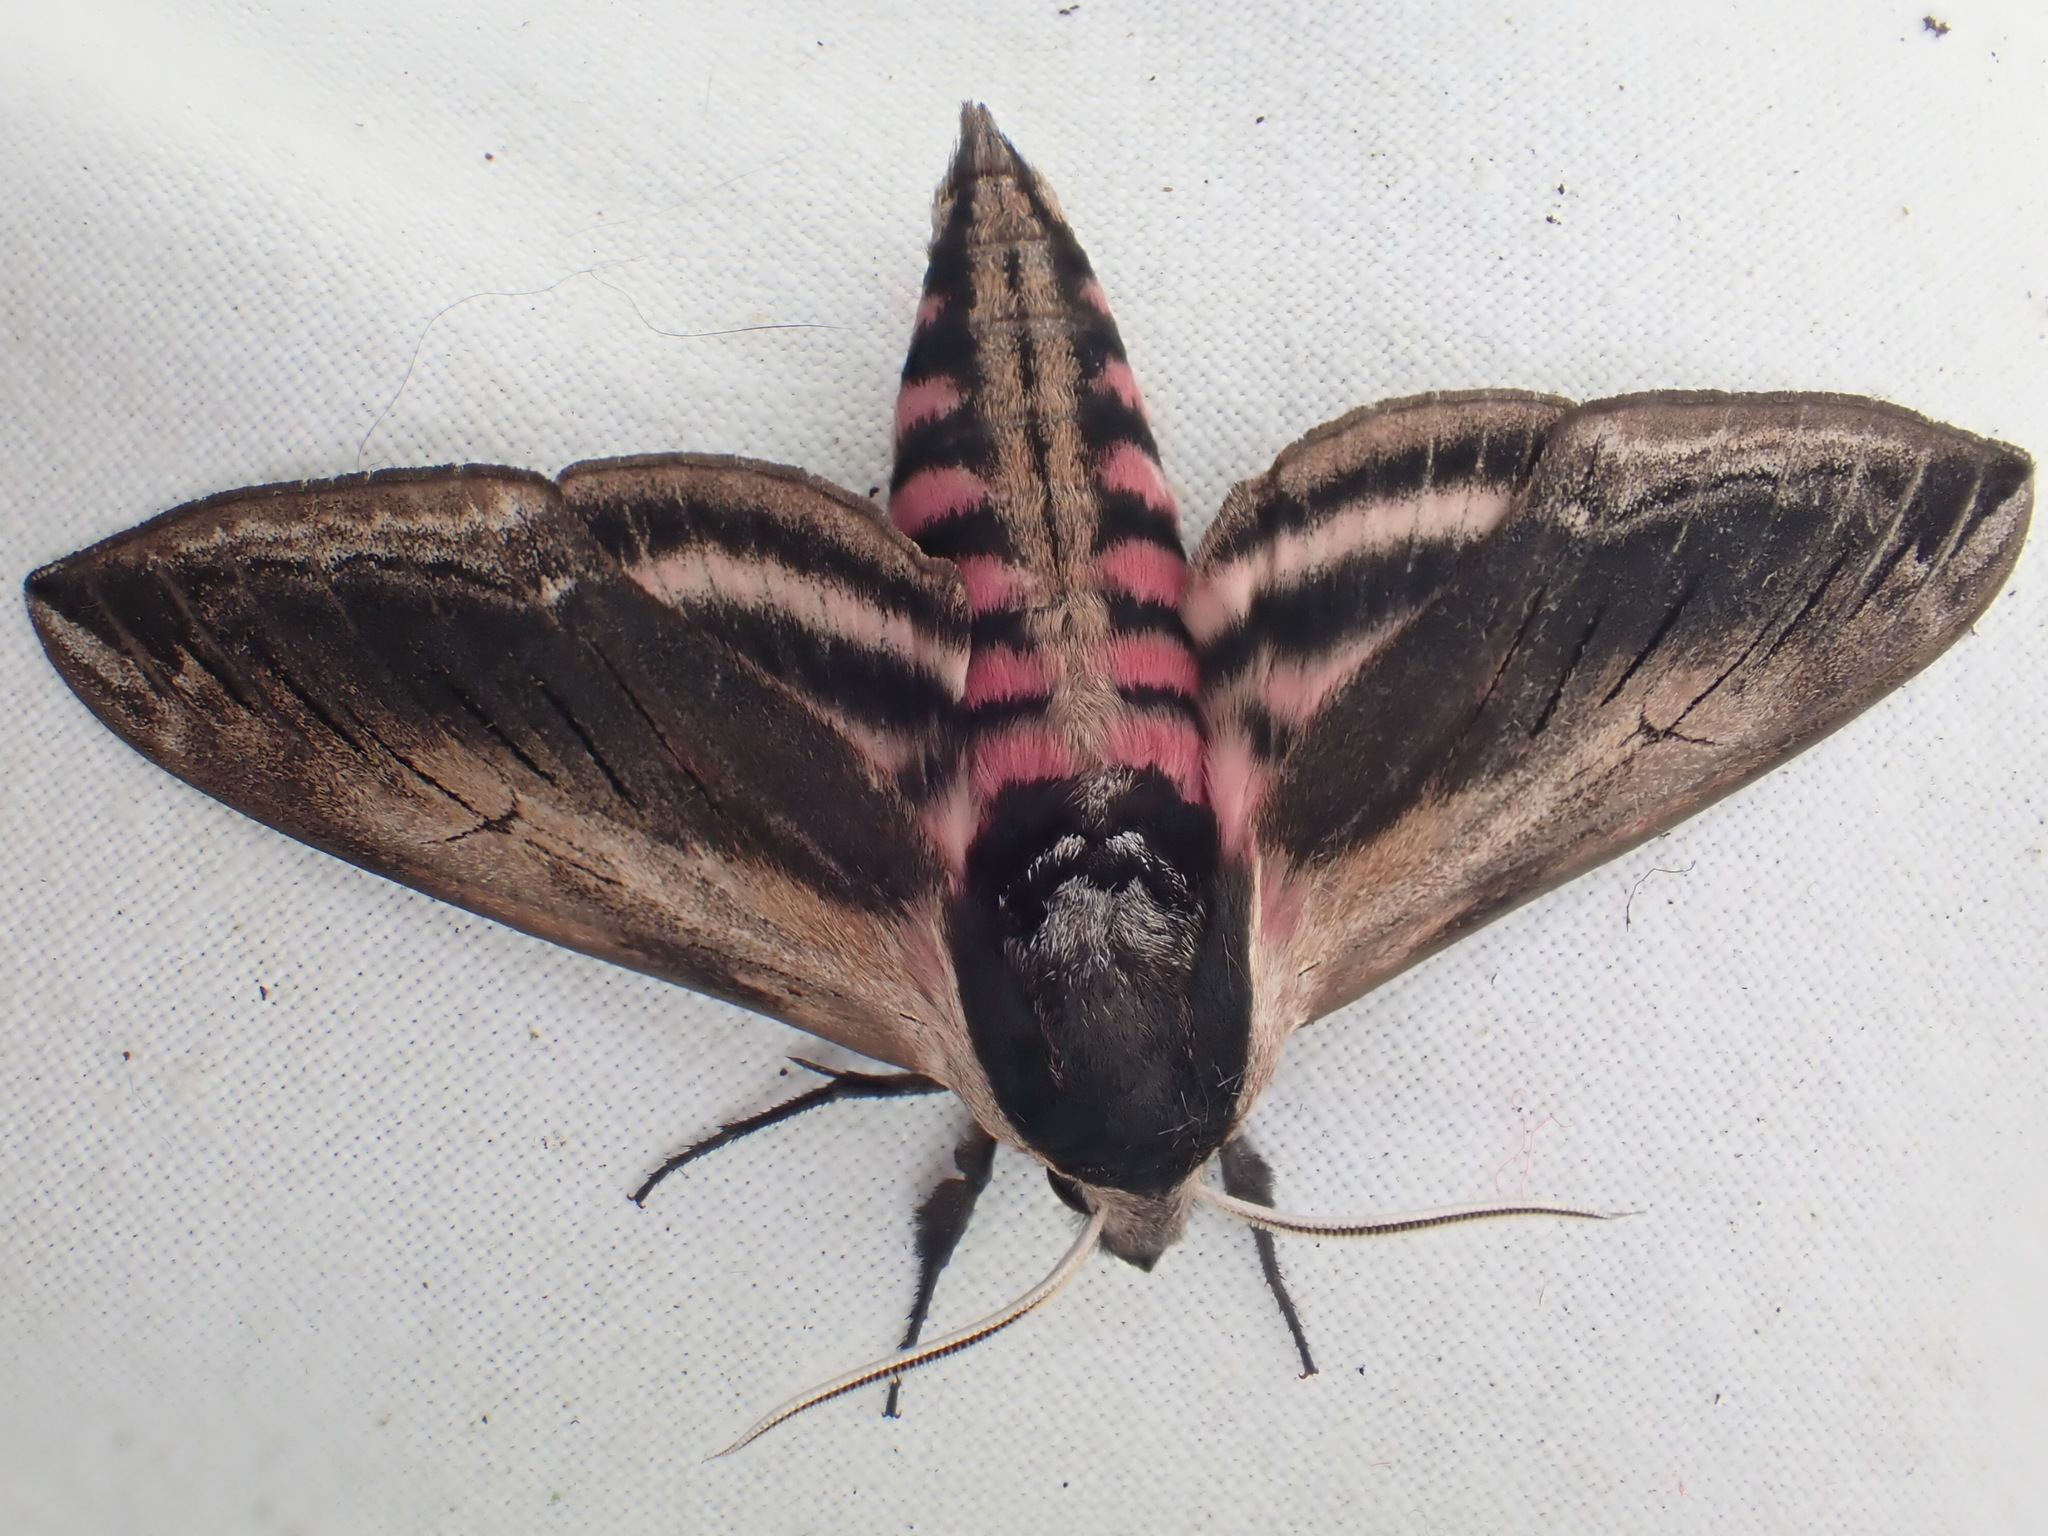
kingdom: Animalia
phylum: Arthropoda
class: Insecta
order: Lepidoptera
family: Sphingidae
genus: Sphinx
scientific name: Sphinx ligustri
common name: Privet hawk-moth
